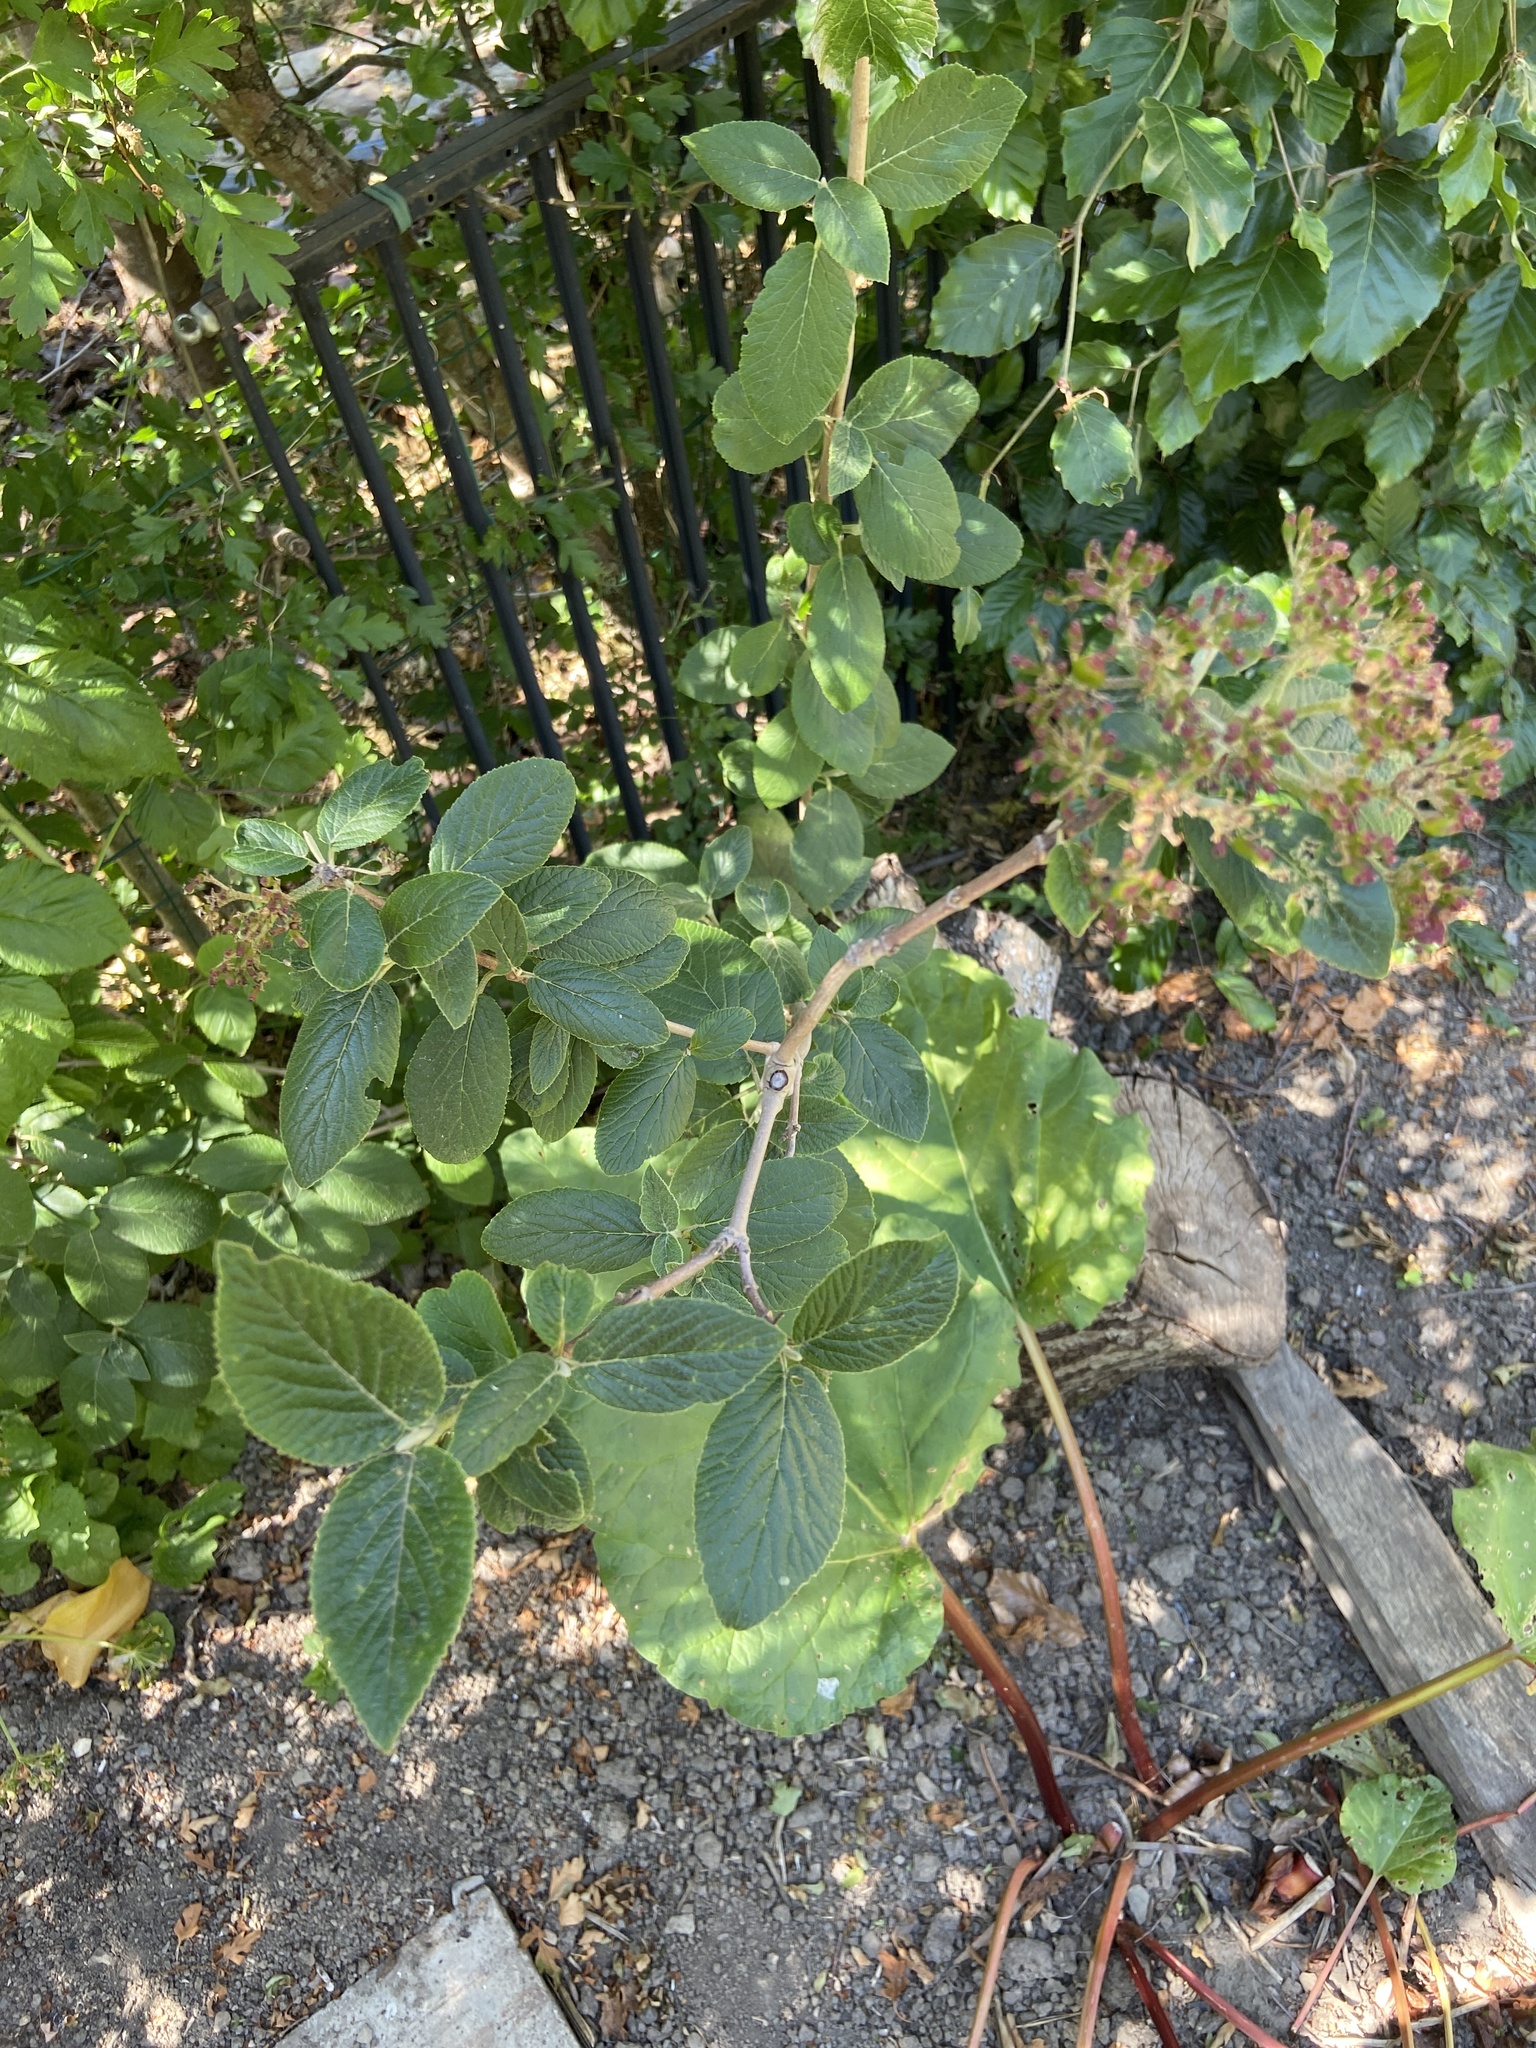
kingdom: Plantae
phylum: Tracheophyta
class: Magnoliopsida
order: Dipsacales
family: Viburnaceae
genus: Viburnum
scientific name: Viburnum lantana
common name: Wayfaring tree
